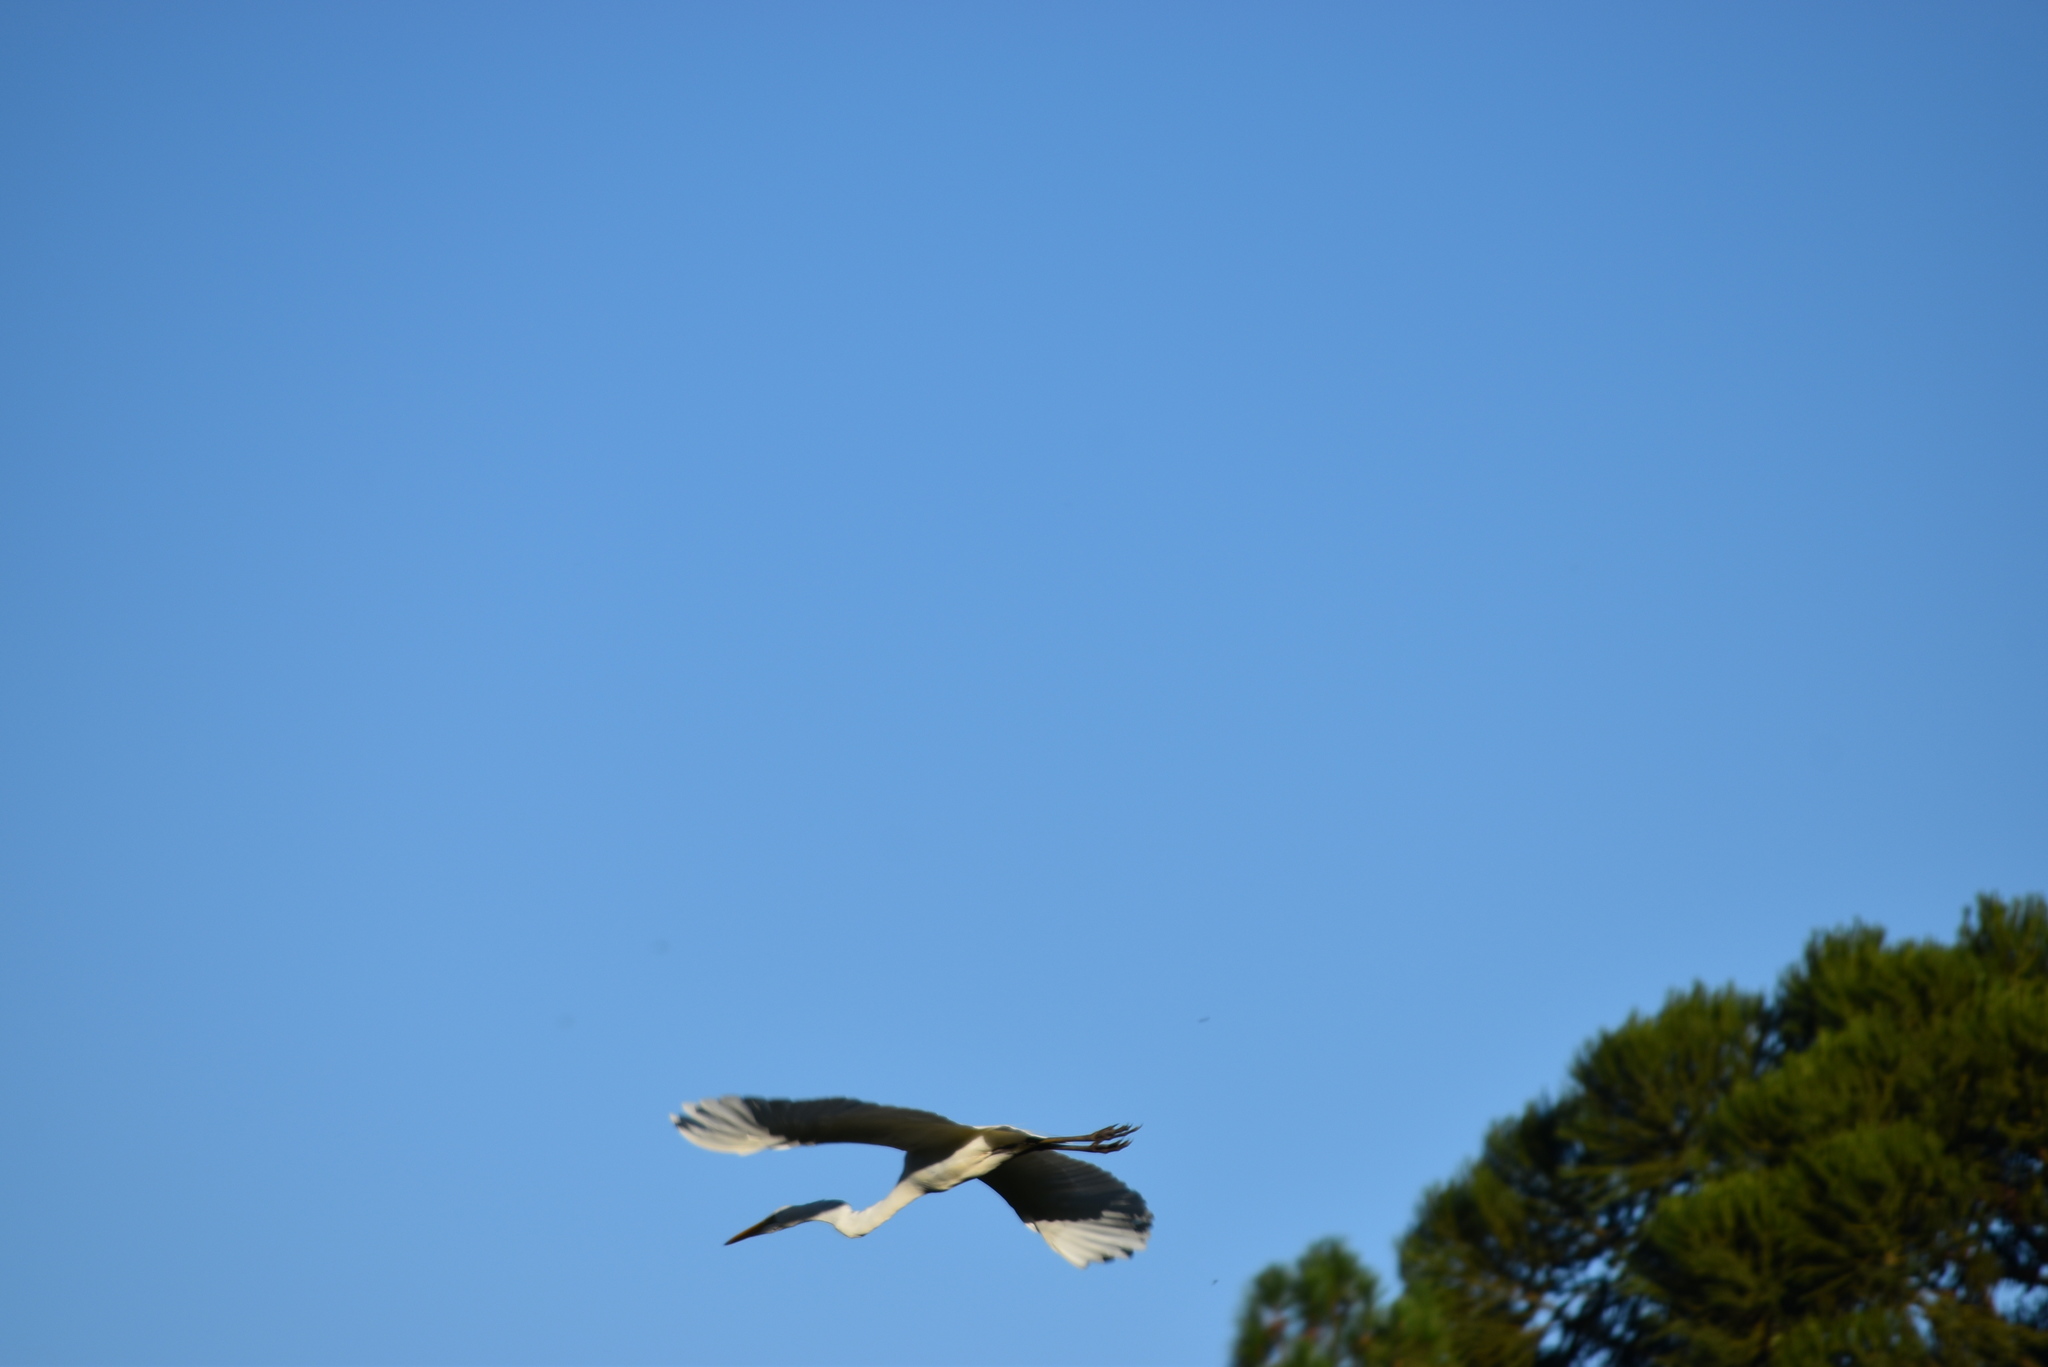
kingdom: Animalia
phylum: Chordata
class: Aves
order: Pelecaniformes
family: Ardeidae
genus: Ardea
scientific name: Ardea alba
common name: Great egret
